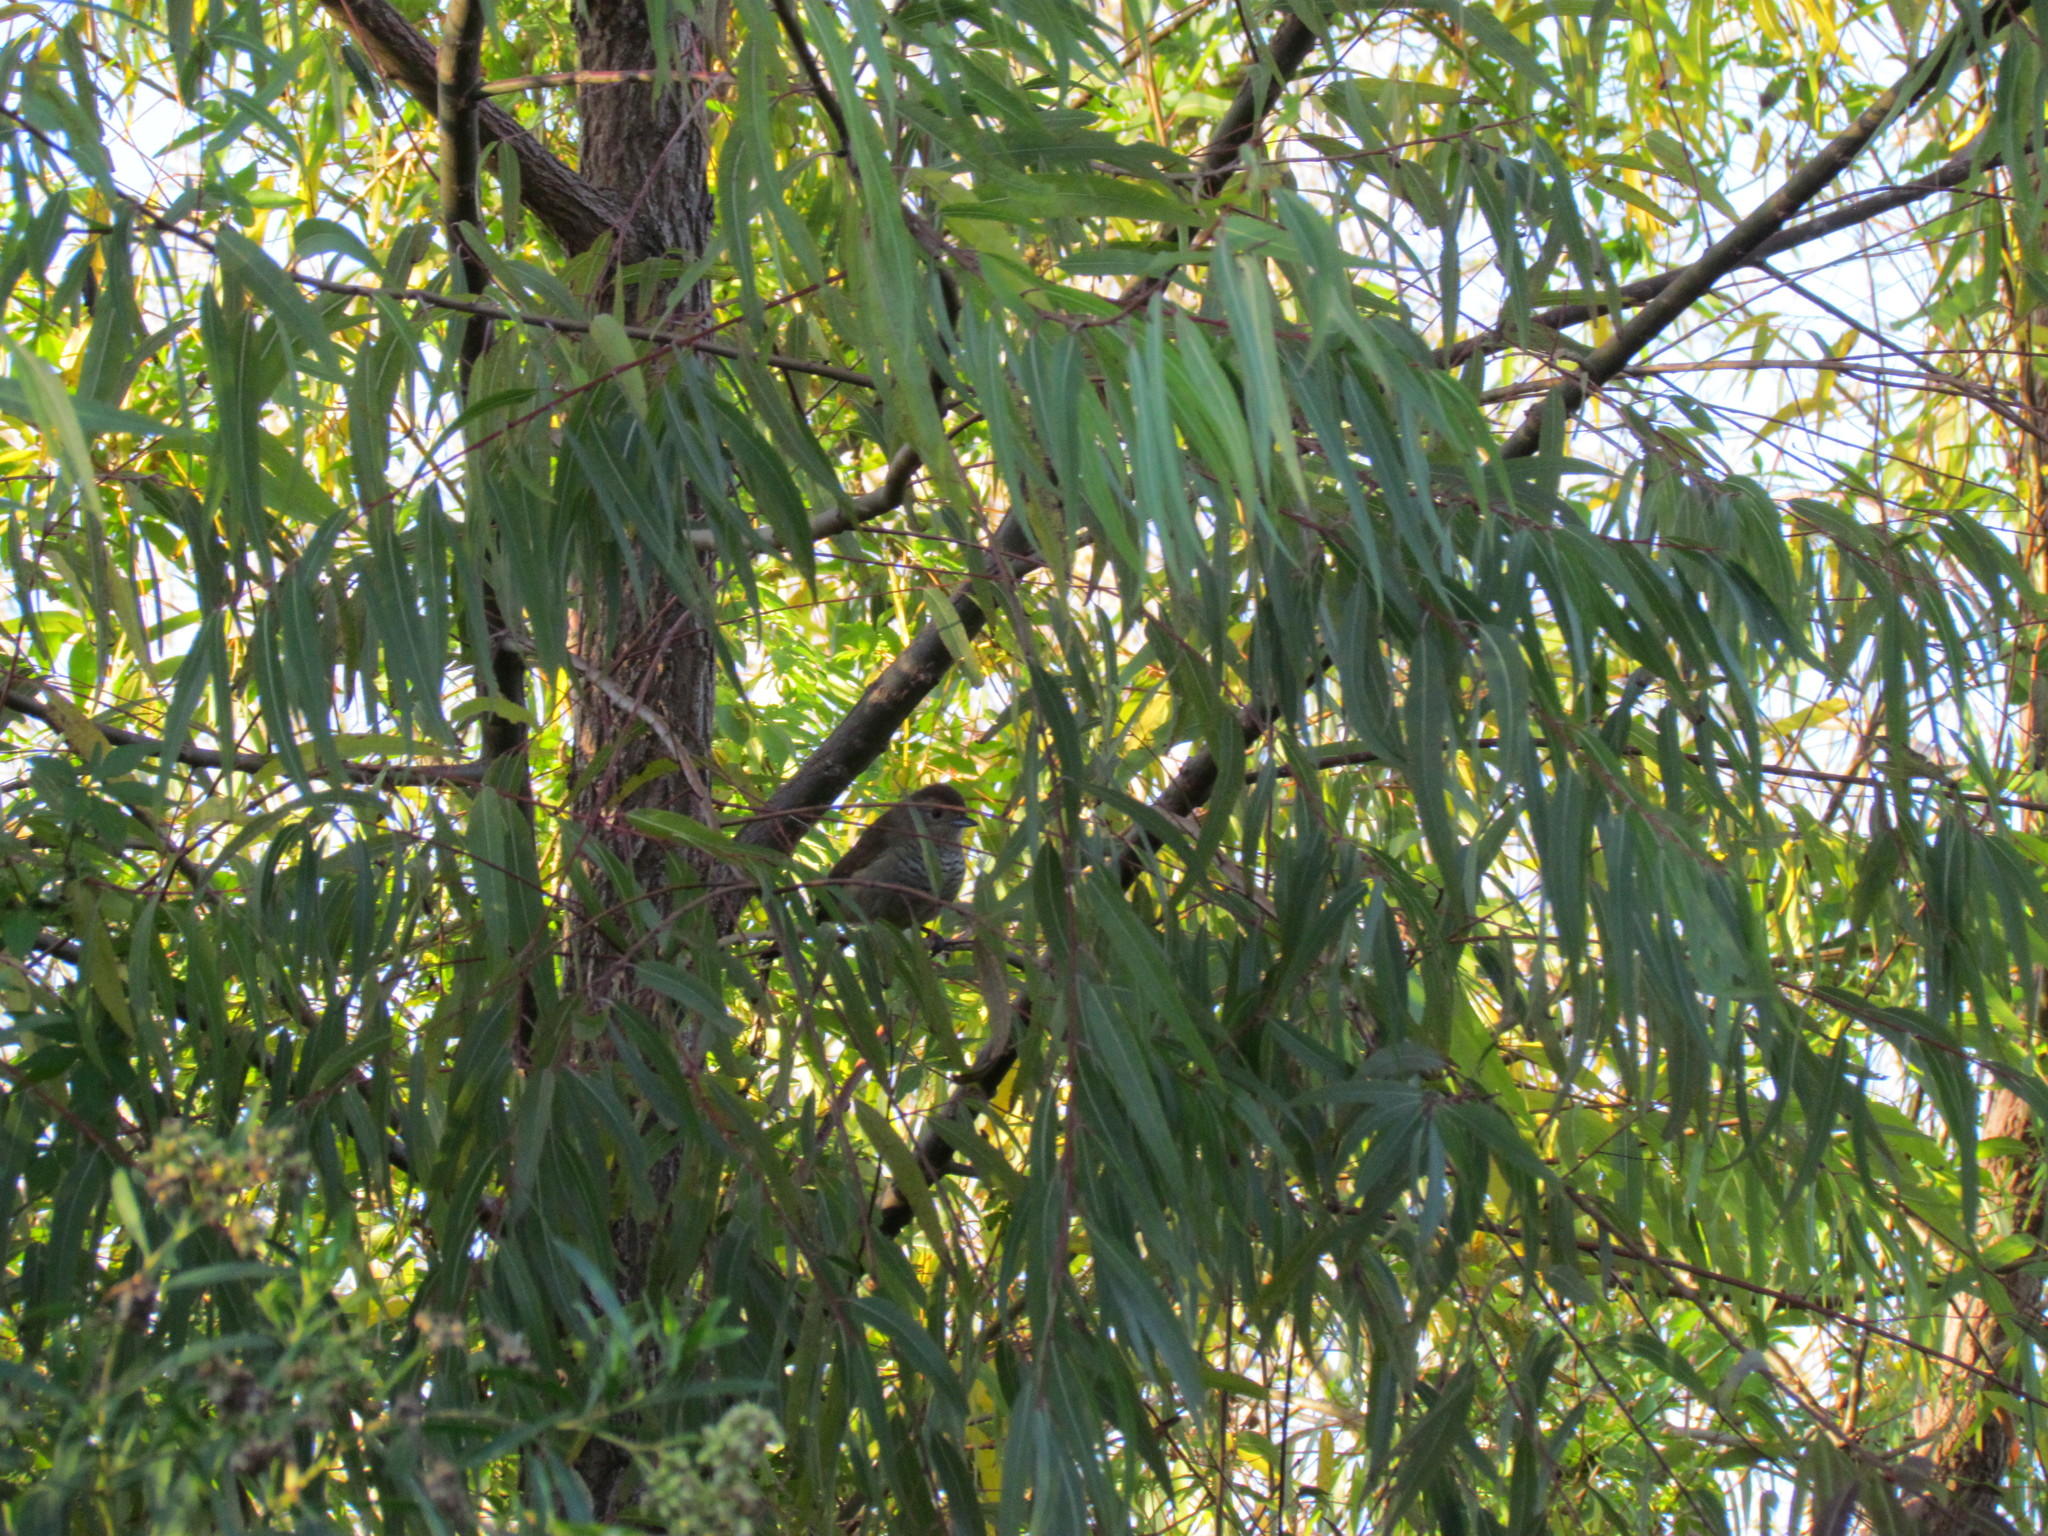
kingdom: Animalia
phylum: Chordata
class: Aves
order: Passeriformes
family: Thamnophilidae
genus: Thamnophilus
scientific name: Thamnophilus ruficapillus
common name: Rufous-capped antshrike
